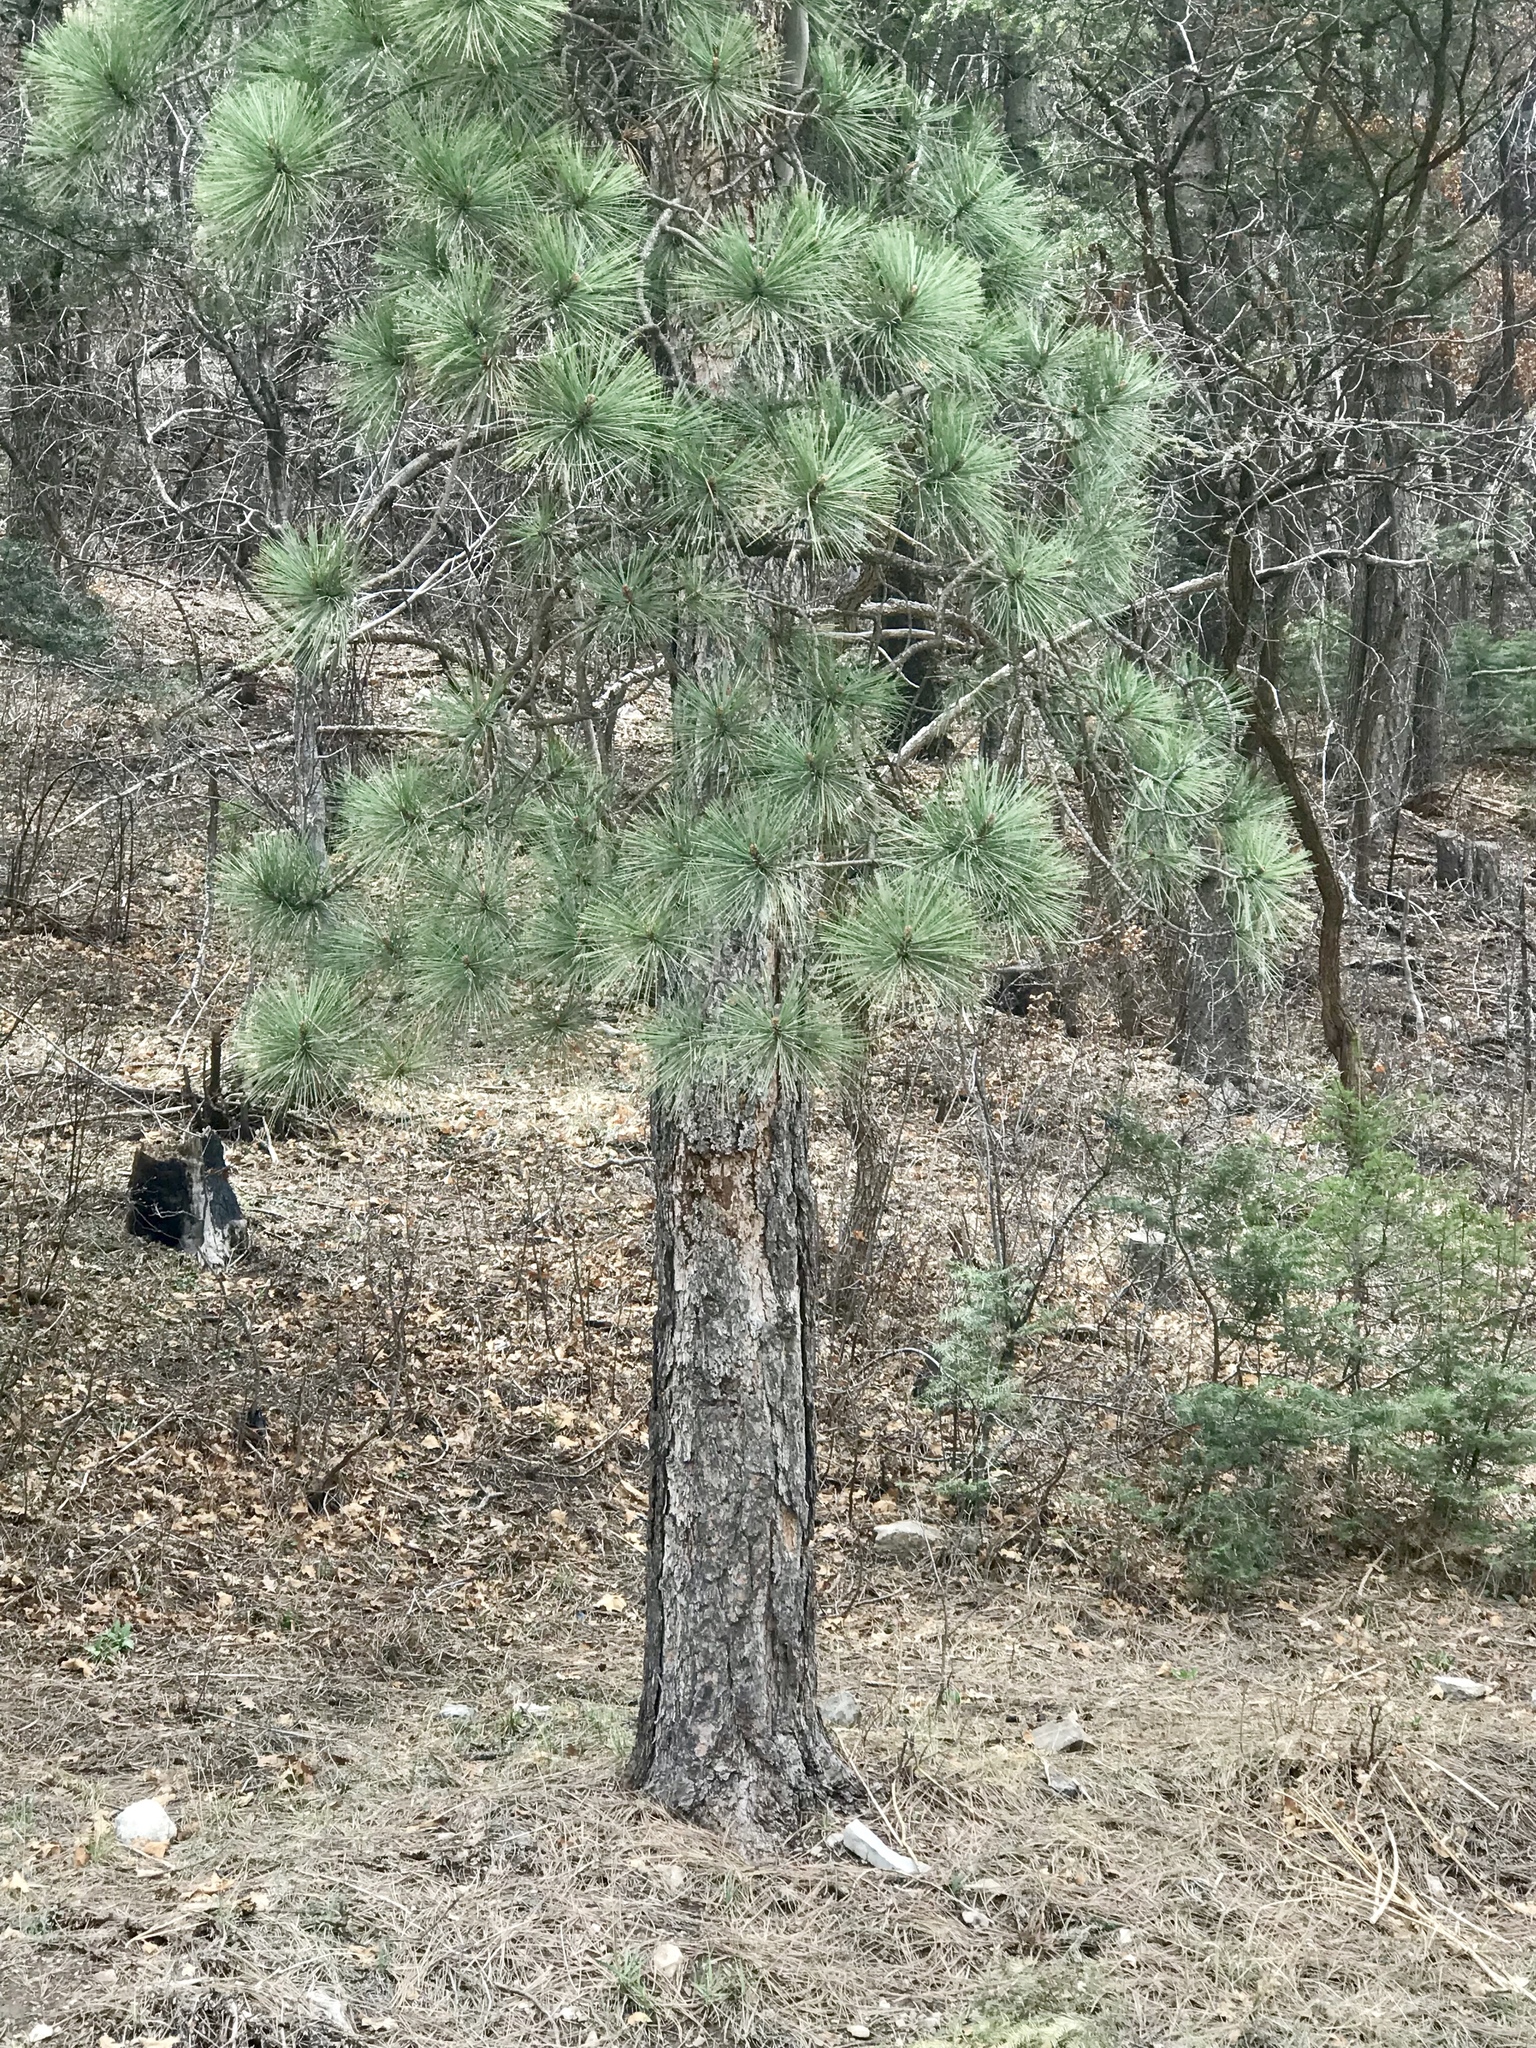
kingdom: Plantae
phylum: Tracheophyta
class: Pinopsida
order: Pinales
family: Pinaceae
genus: Pinus
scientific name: Pinus ponderosa
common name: Western yellow-pine
